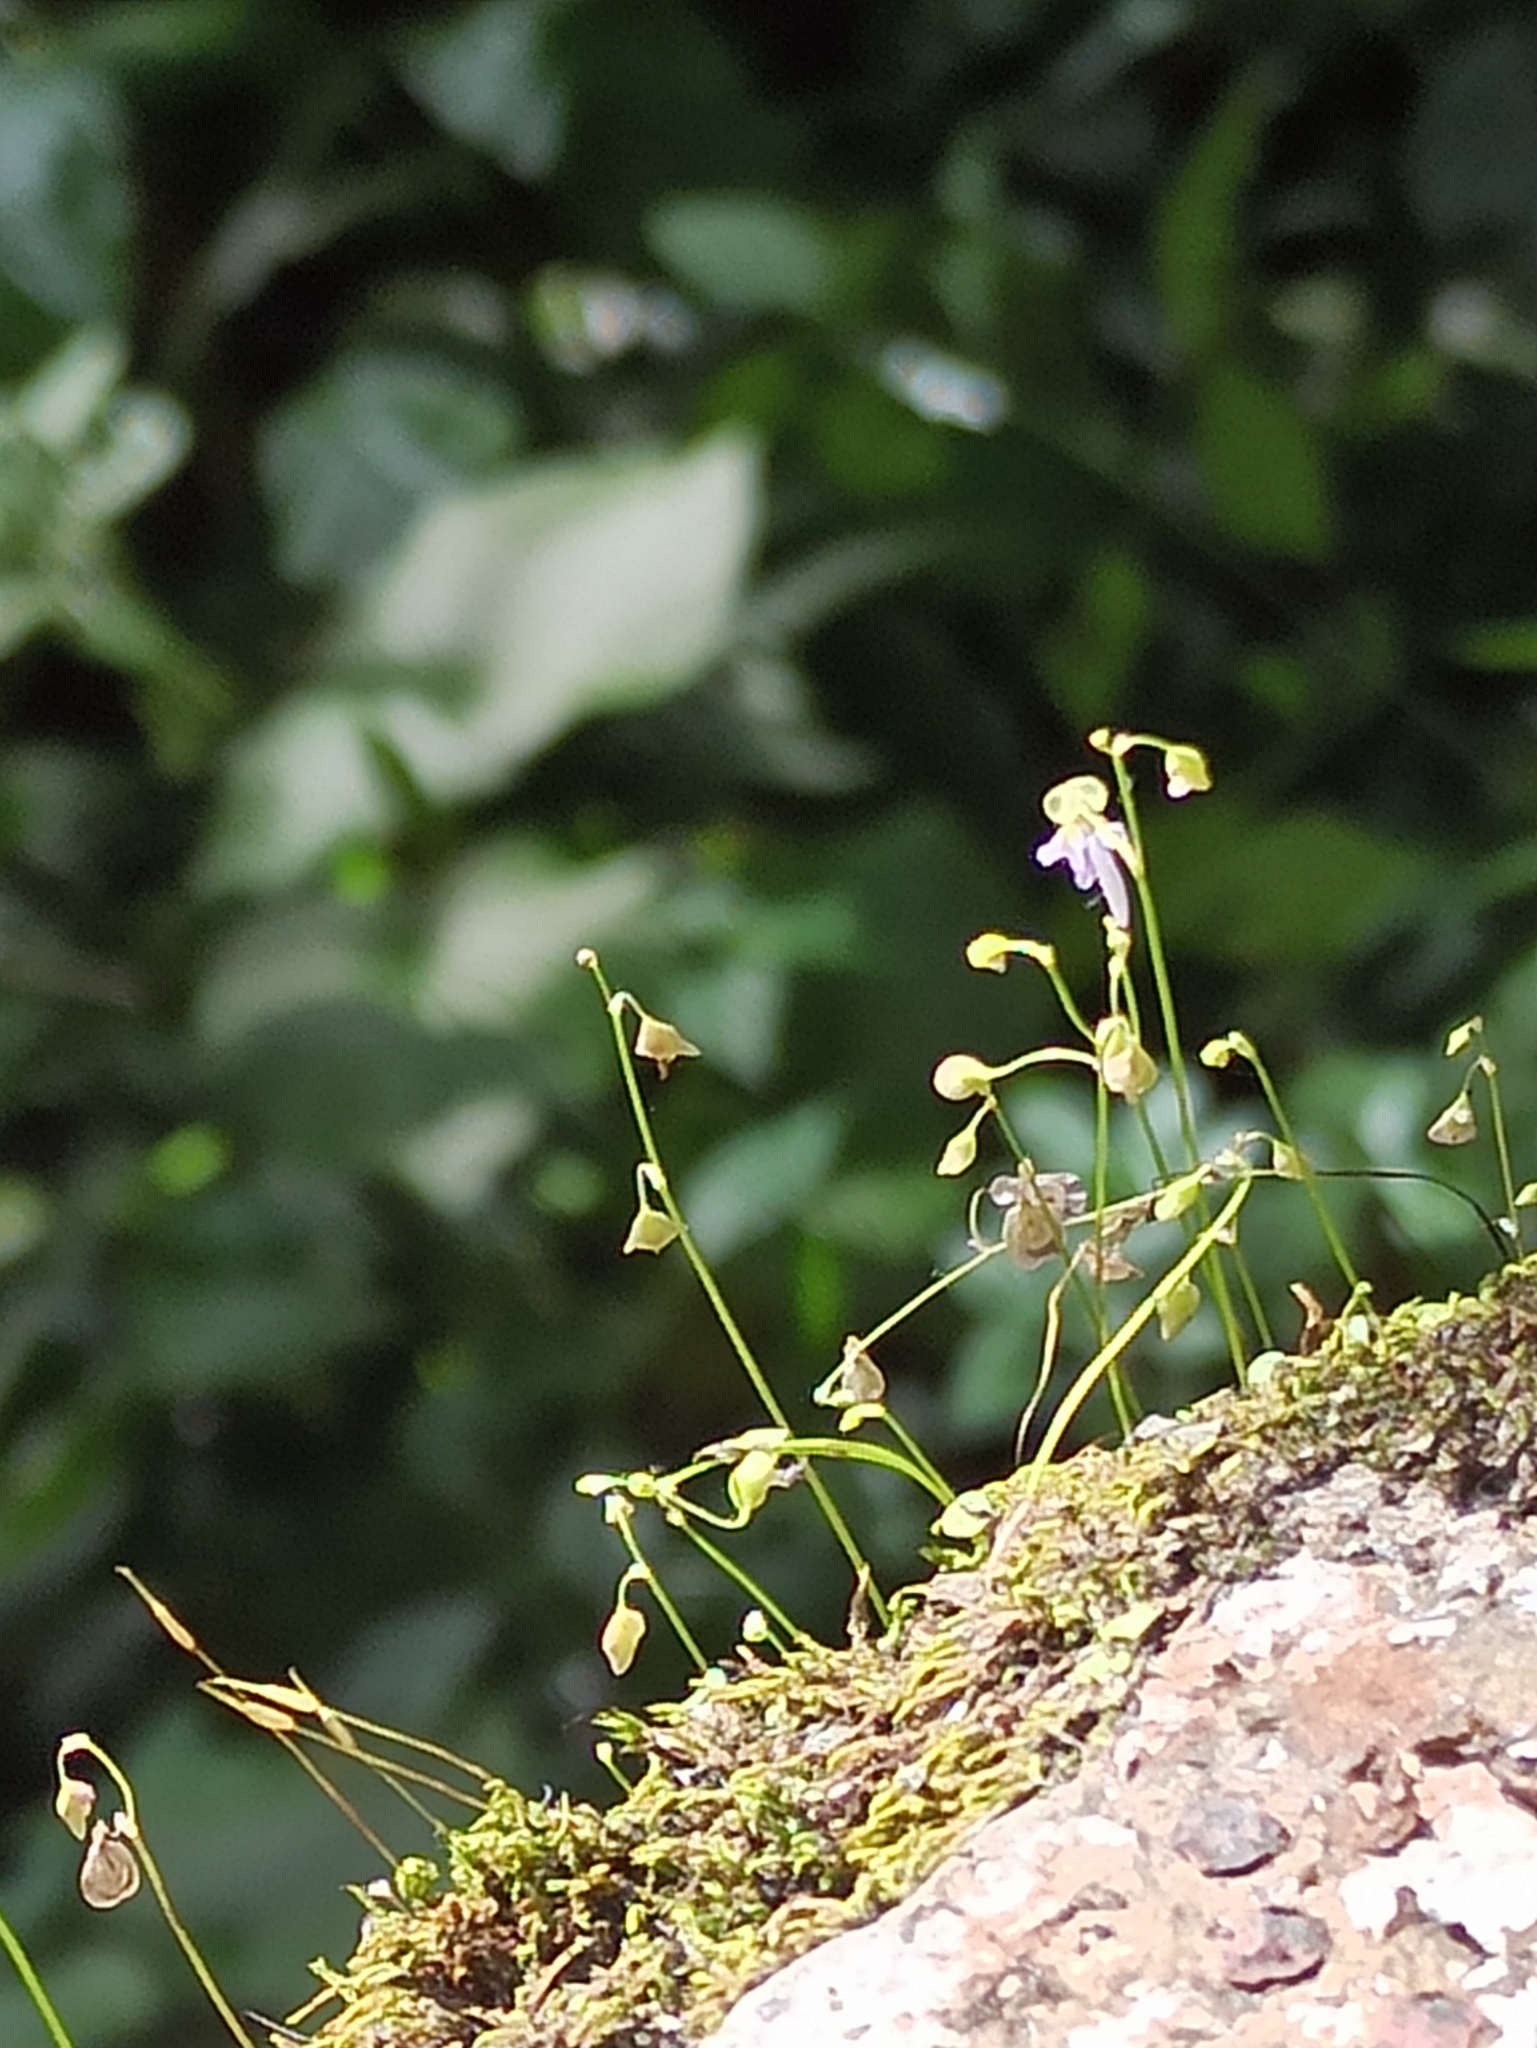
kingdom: Plantae
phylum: Tracheophyta
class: Magnoliopsida
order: Lamiales
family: Lentibulariaceae
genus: Utricularia
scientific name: Utricularia striatula
